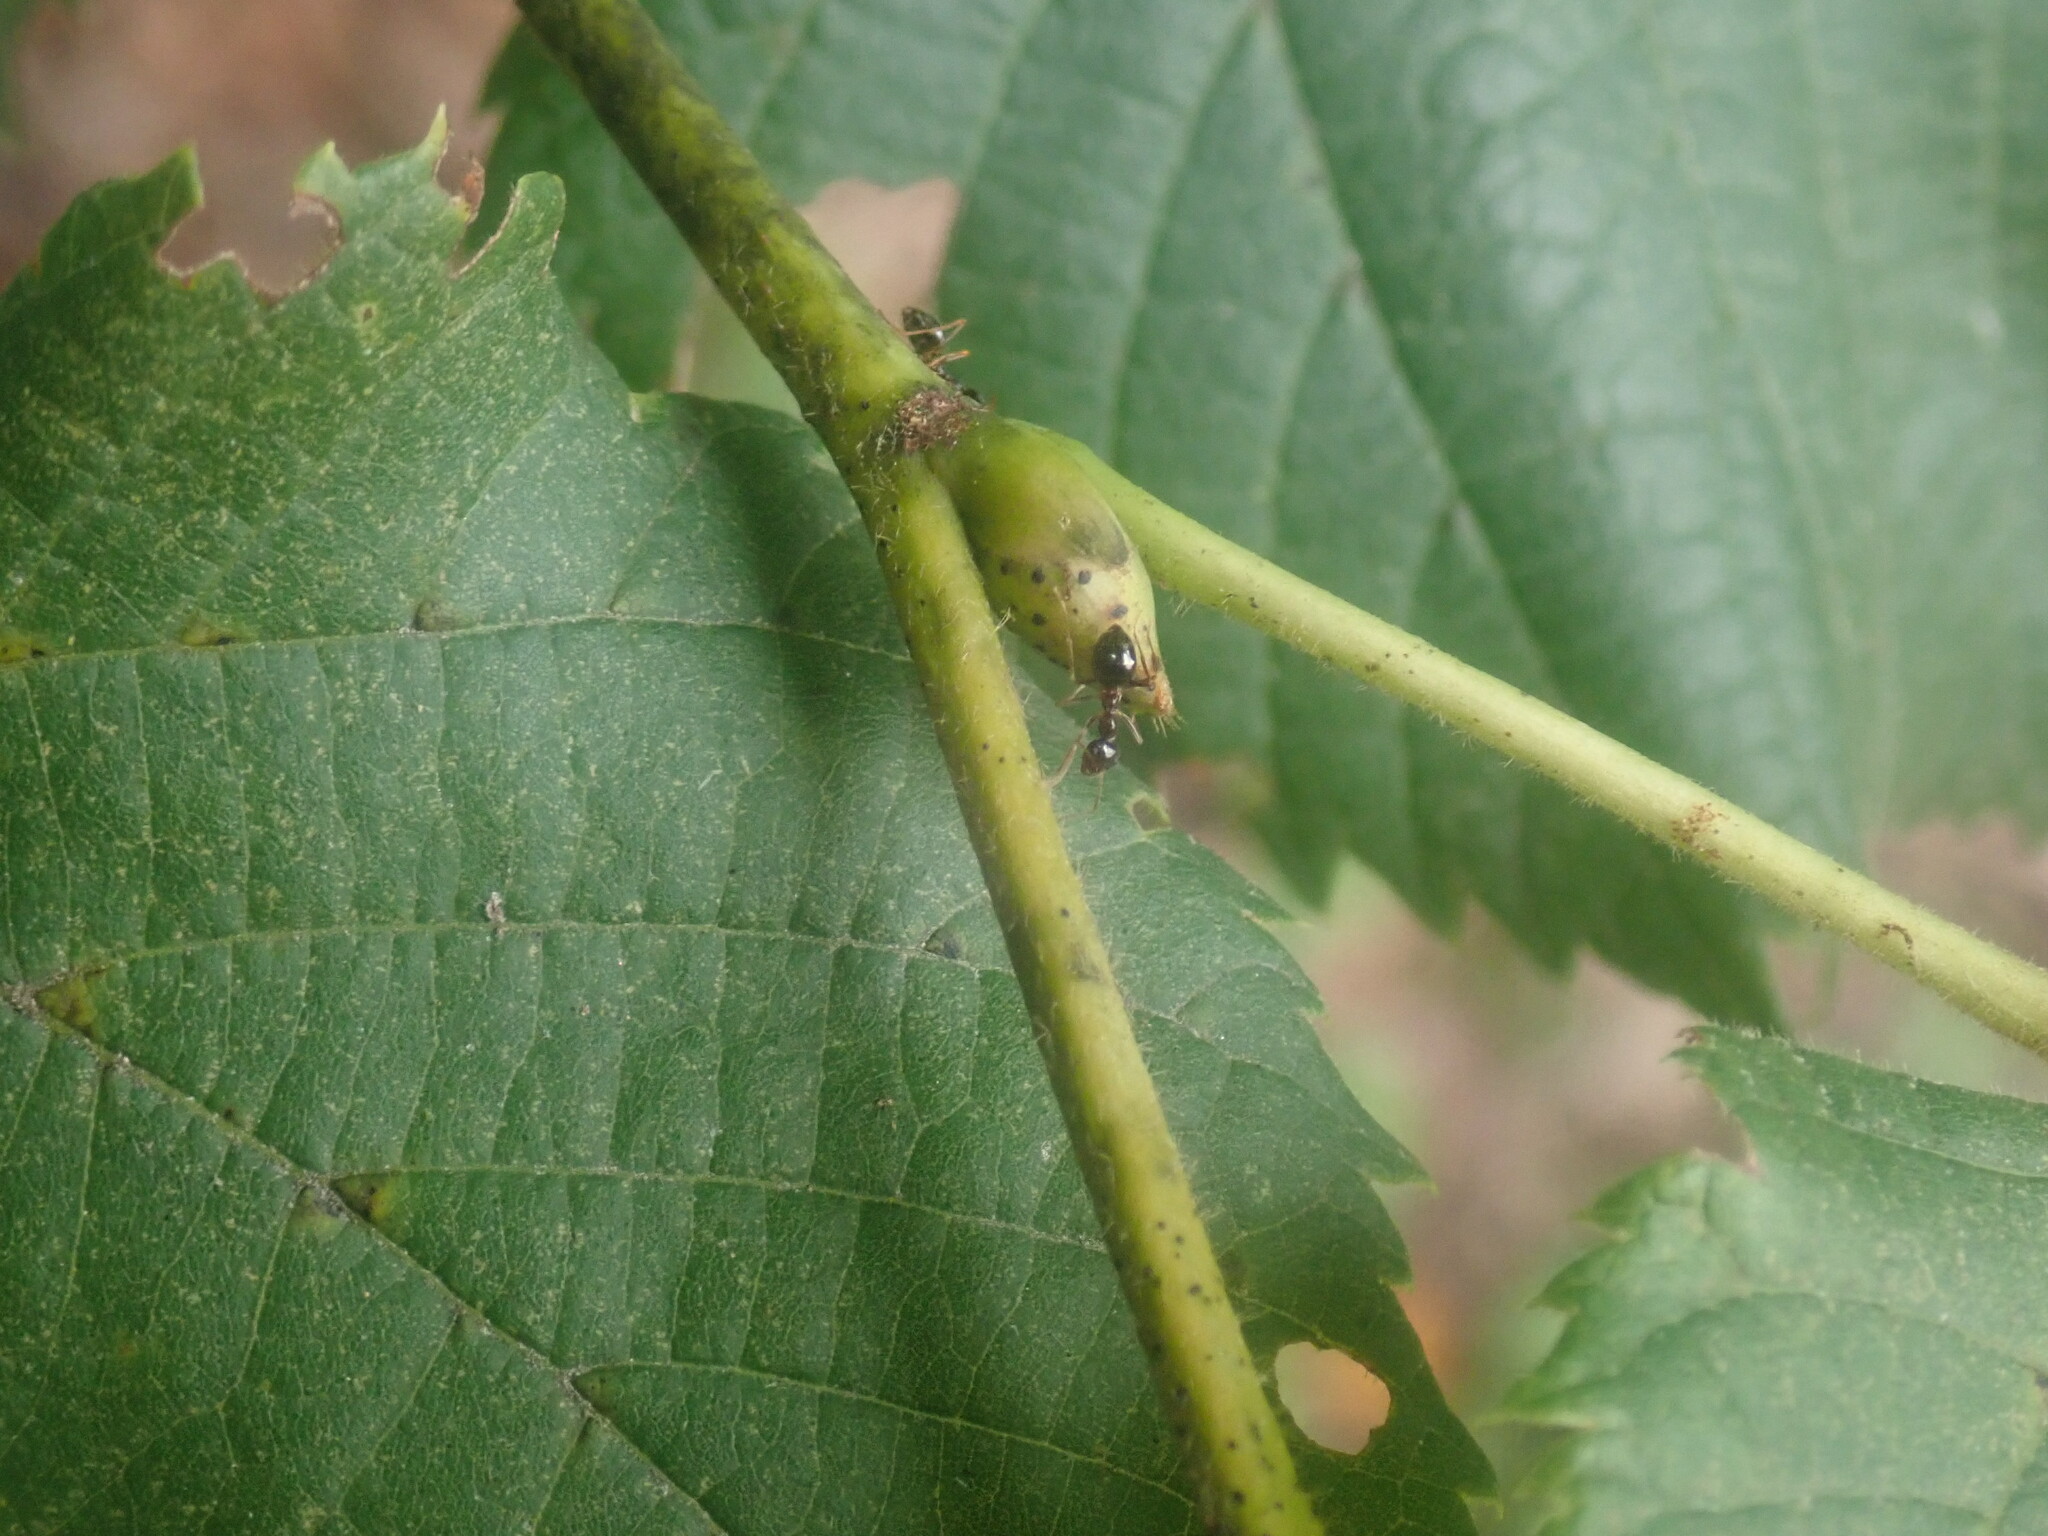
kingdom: Animalia
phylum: Arthropoda
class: Insecta
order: Hymenoptera
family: Formicidae
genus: Prenolepis
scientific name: Prenolepis imparis
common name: Small honey ant
